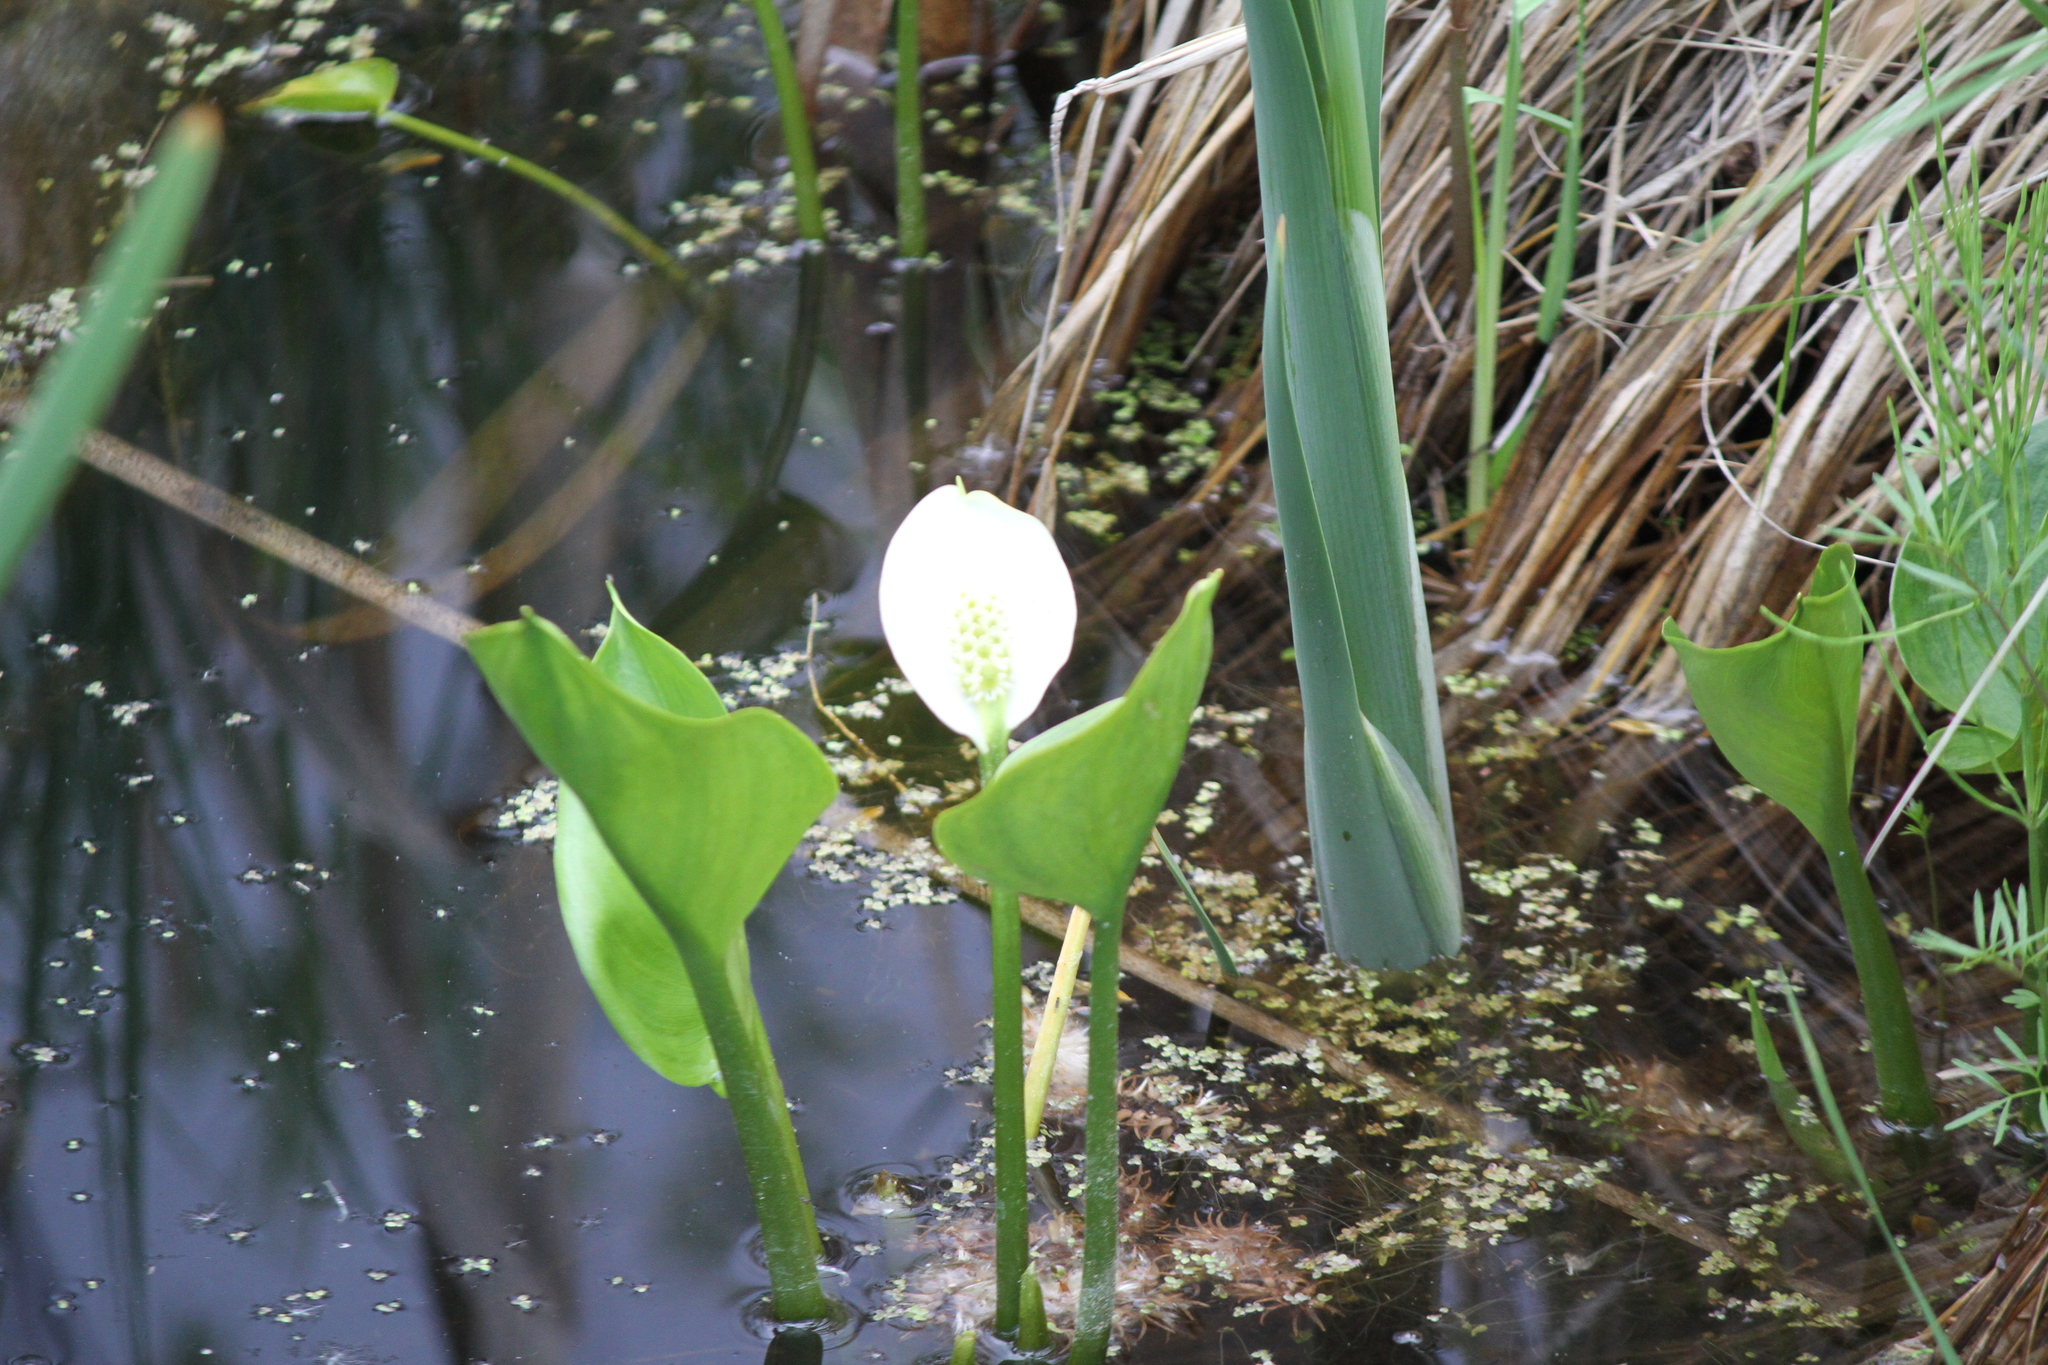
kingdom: Plantae
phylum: Tracheophyta
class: Liliopsida
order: Alismatales
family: Araceae
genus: Calla
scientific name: Calla palustris
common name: Bog arum
